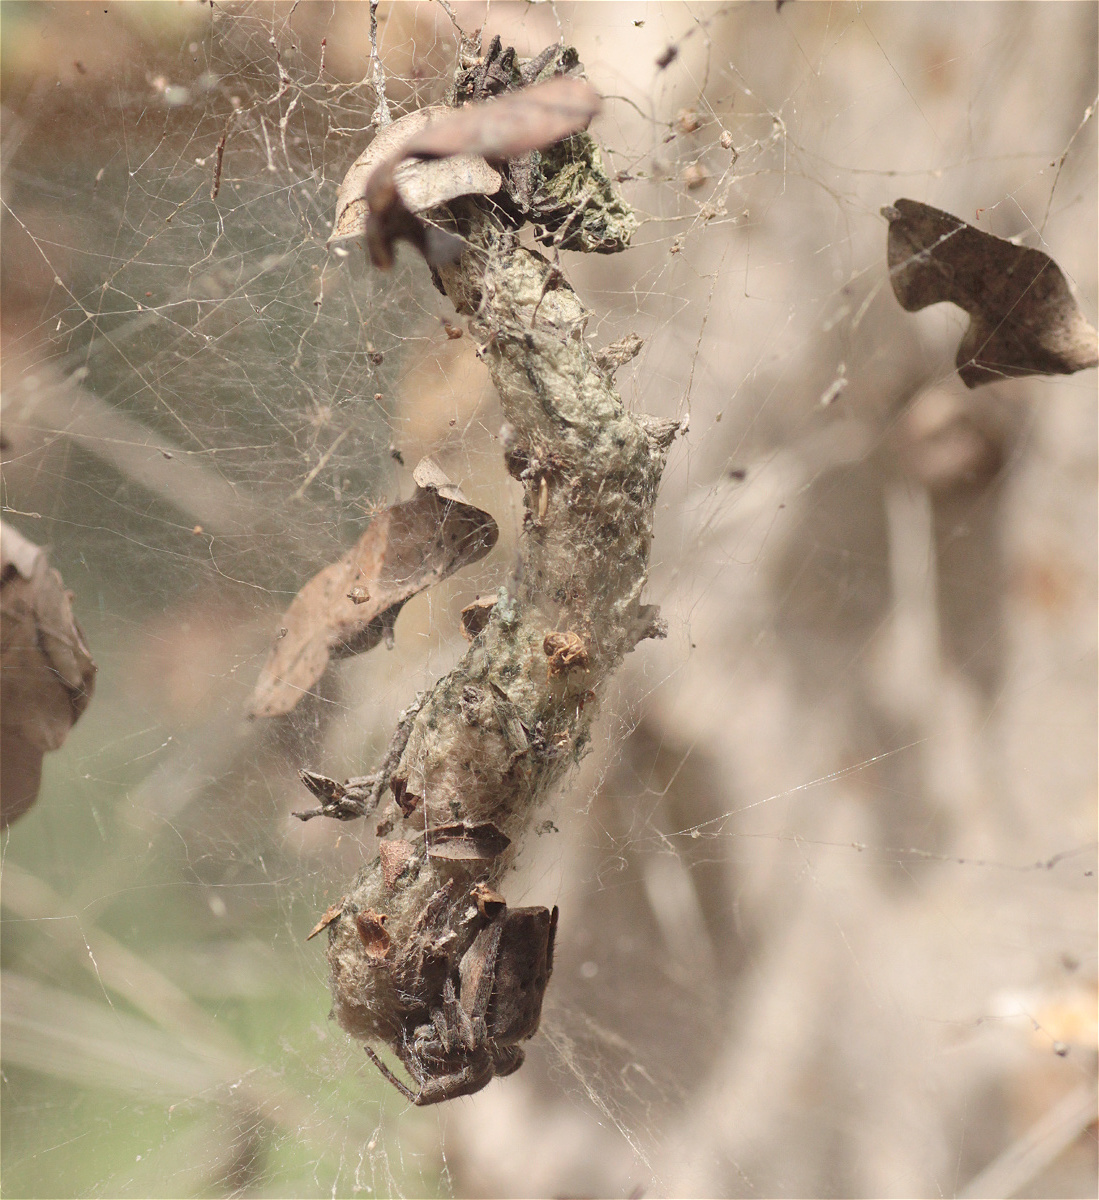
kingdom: Animalia
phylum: Arthropoda
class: Arachnida
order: Araneae
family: Araneidae
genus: Cyrtophora
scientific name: Cyrtophora citricola
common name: Orb weavers
